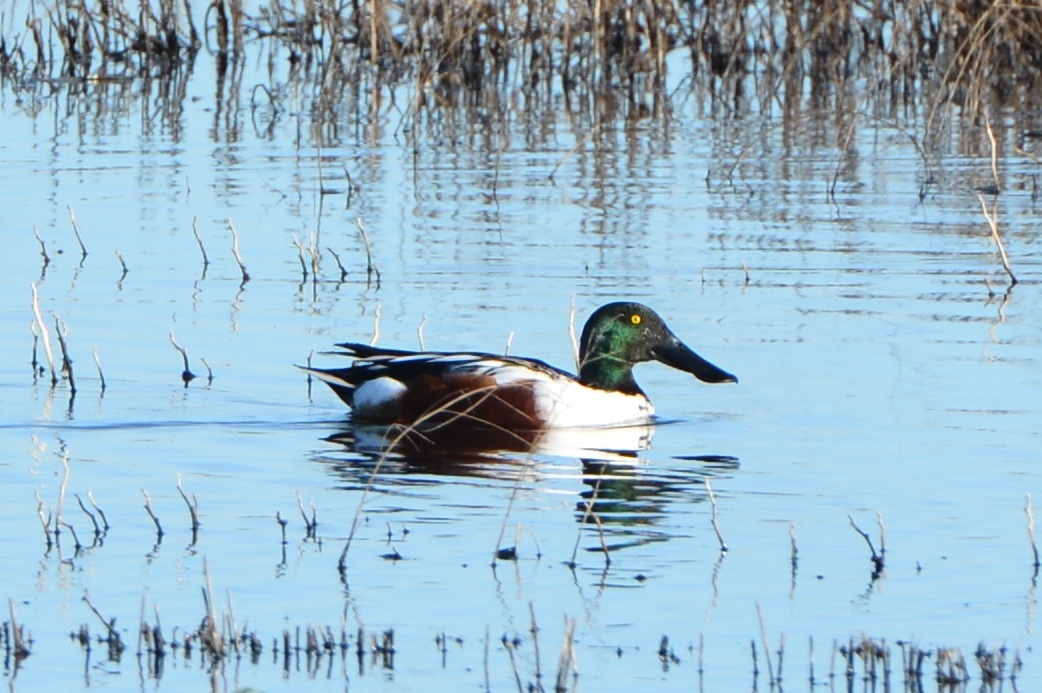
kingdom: Animalia
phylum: Chordata
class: Aves
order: Anseriformes
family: Anatidae
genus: Spatula
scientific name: Spatula clypeata
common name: Northern shoveler
